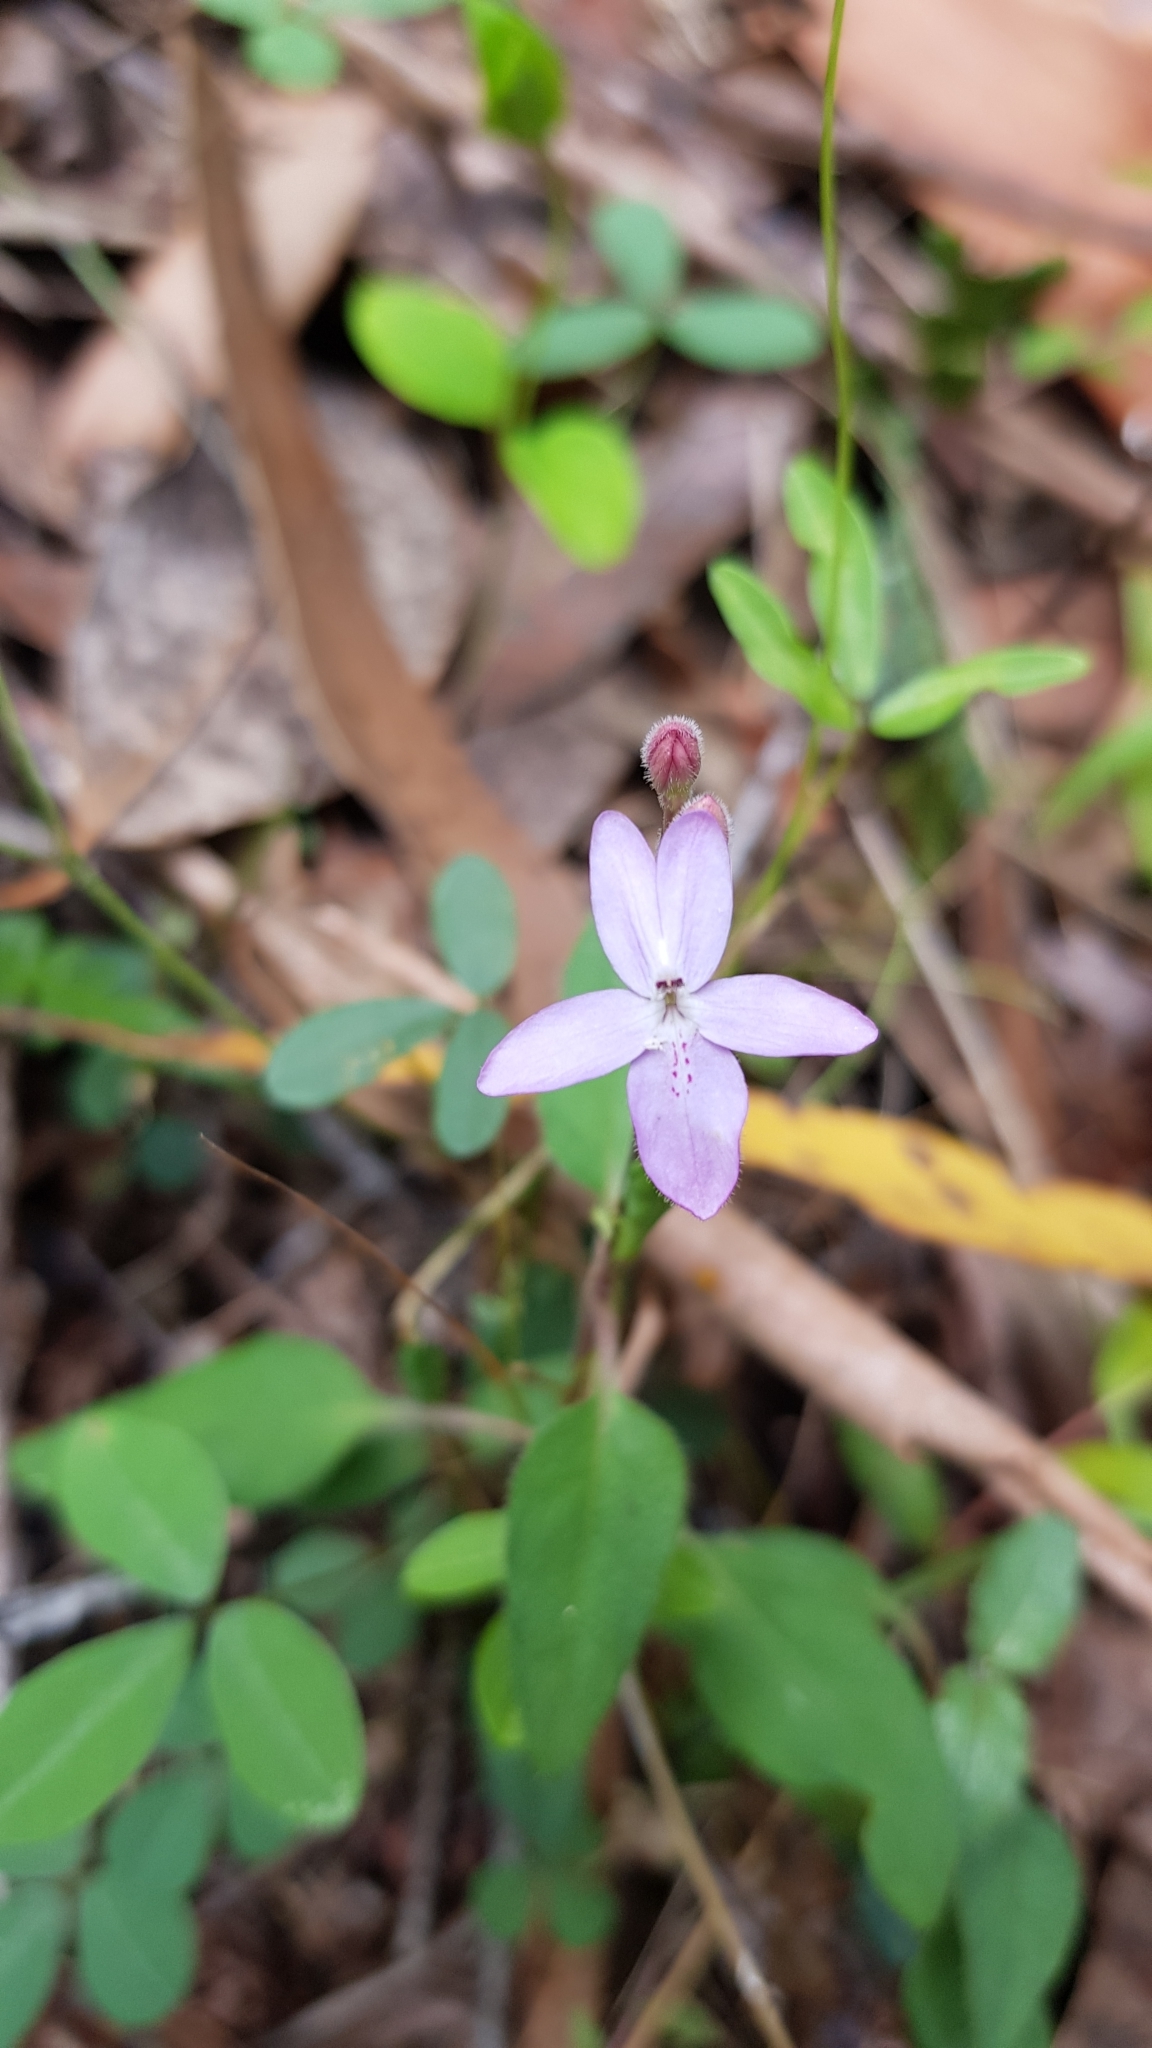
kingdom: Plantae
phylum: Tracheophyta
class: Magnoliopsida
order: Lamiales
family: Acanthaceae
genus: Pseuderanthemum
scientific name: Pseuderanthemum variabile
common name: Night and afternoon
